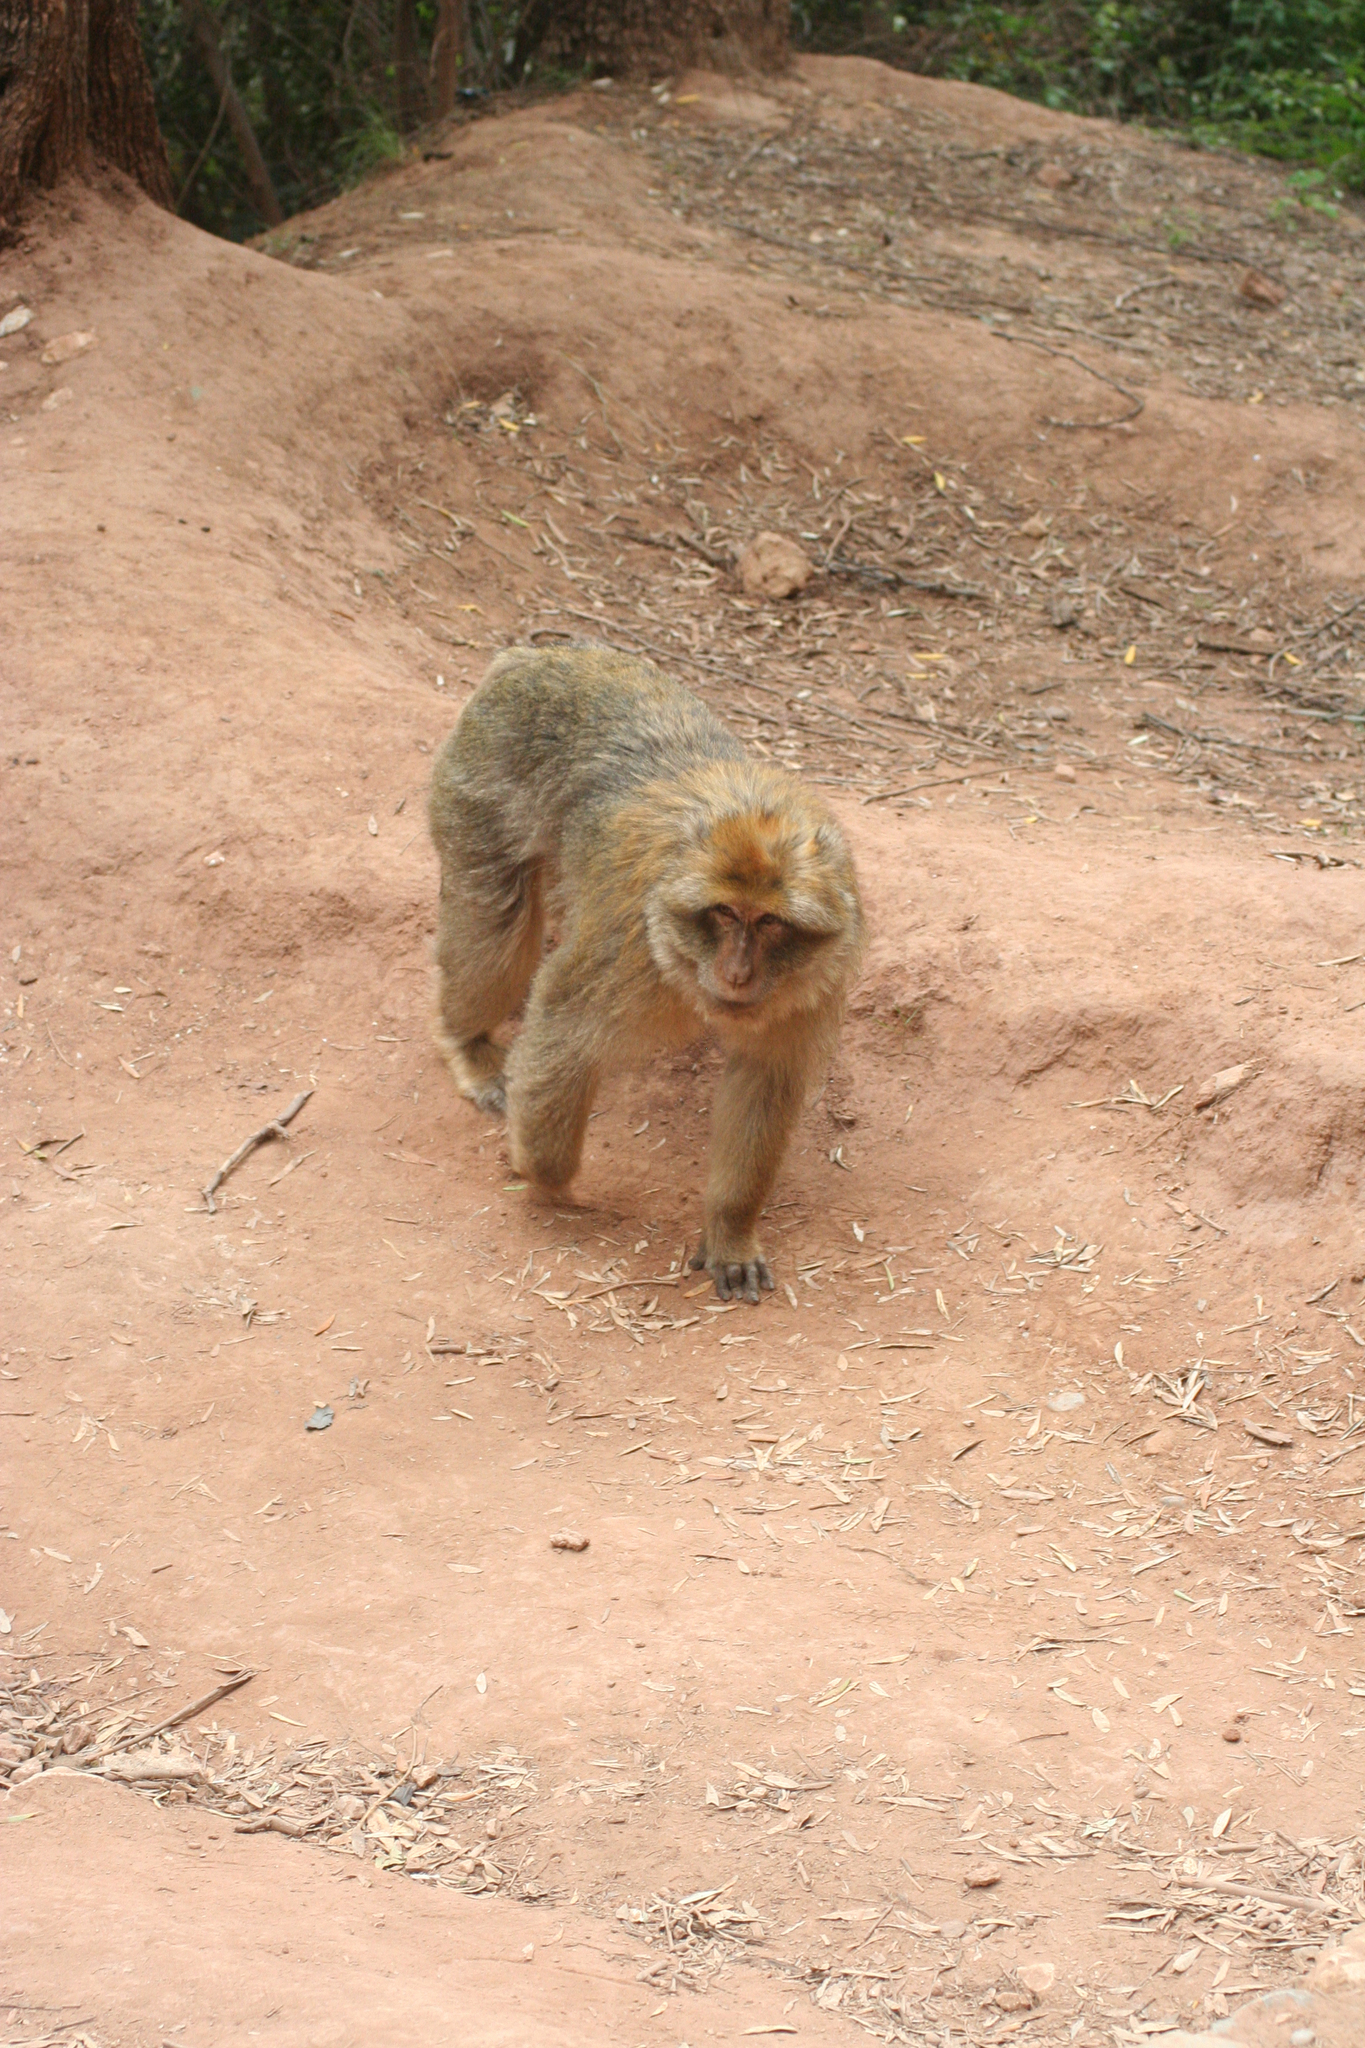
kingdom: Animalia
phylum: Chordata
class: Mammalia
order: Primates
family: Cercopithecidae
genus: Macaca
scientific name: Macaca sylvanus
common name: Barbary macaque
